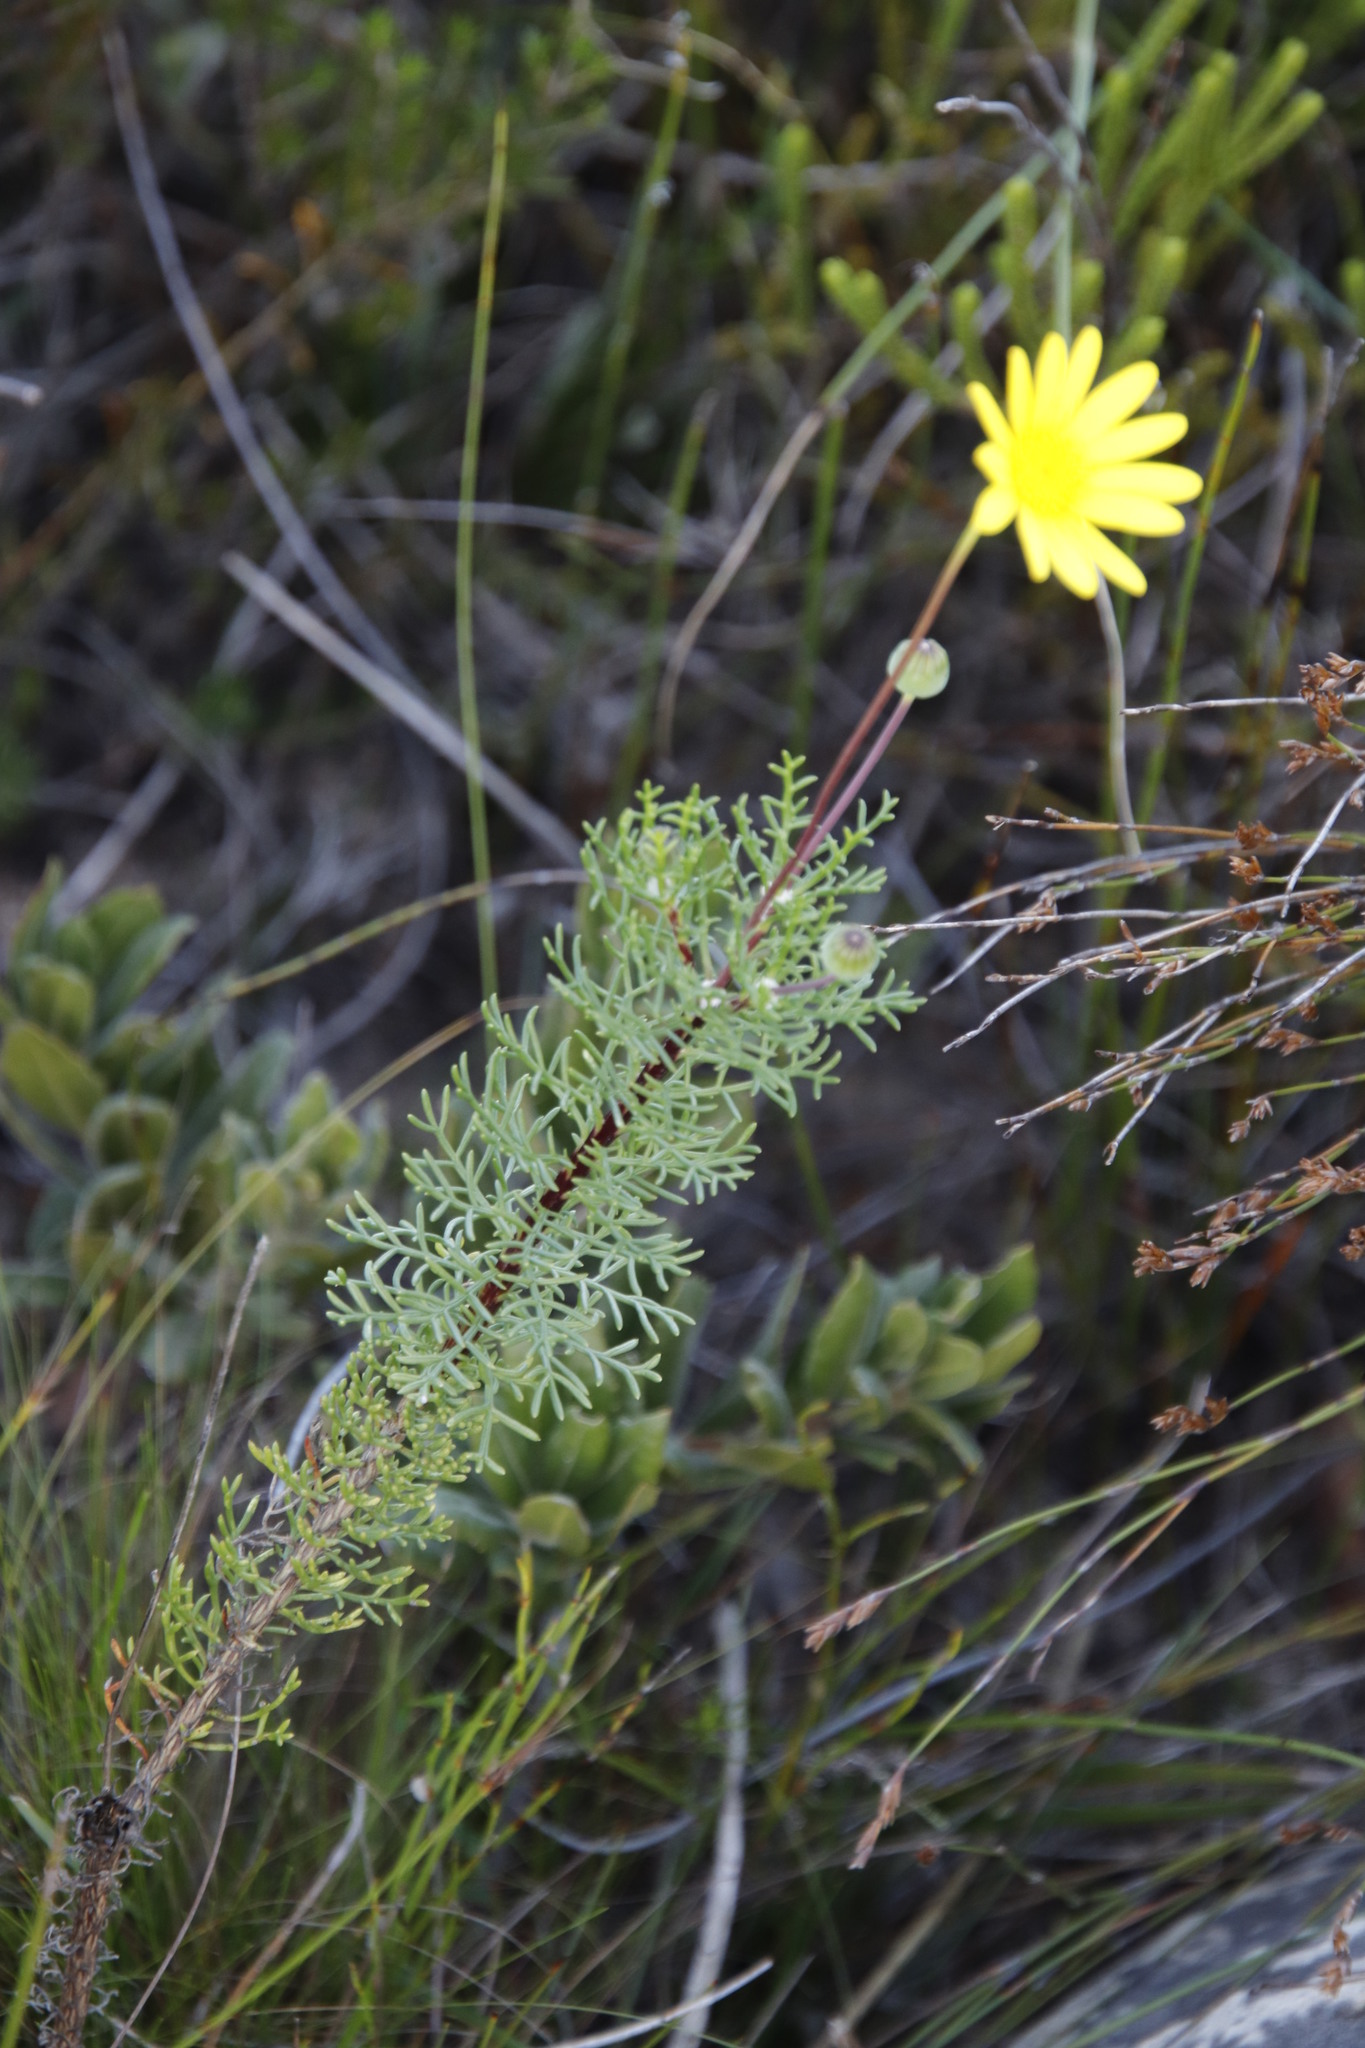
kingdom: Plantae
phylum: Tracheophyta
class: Magnoliopsida
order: Asterales
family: Asteraceae
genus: Euryops
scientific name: Euryops abrotanifolius
